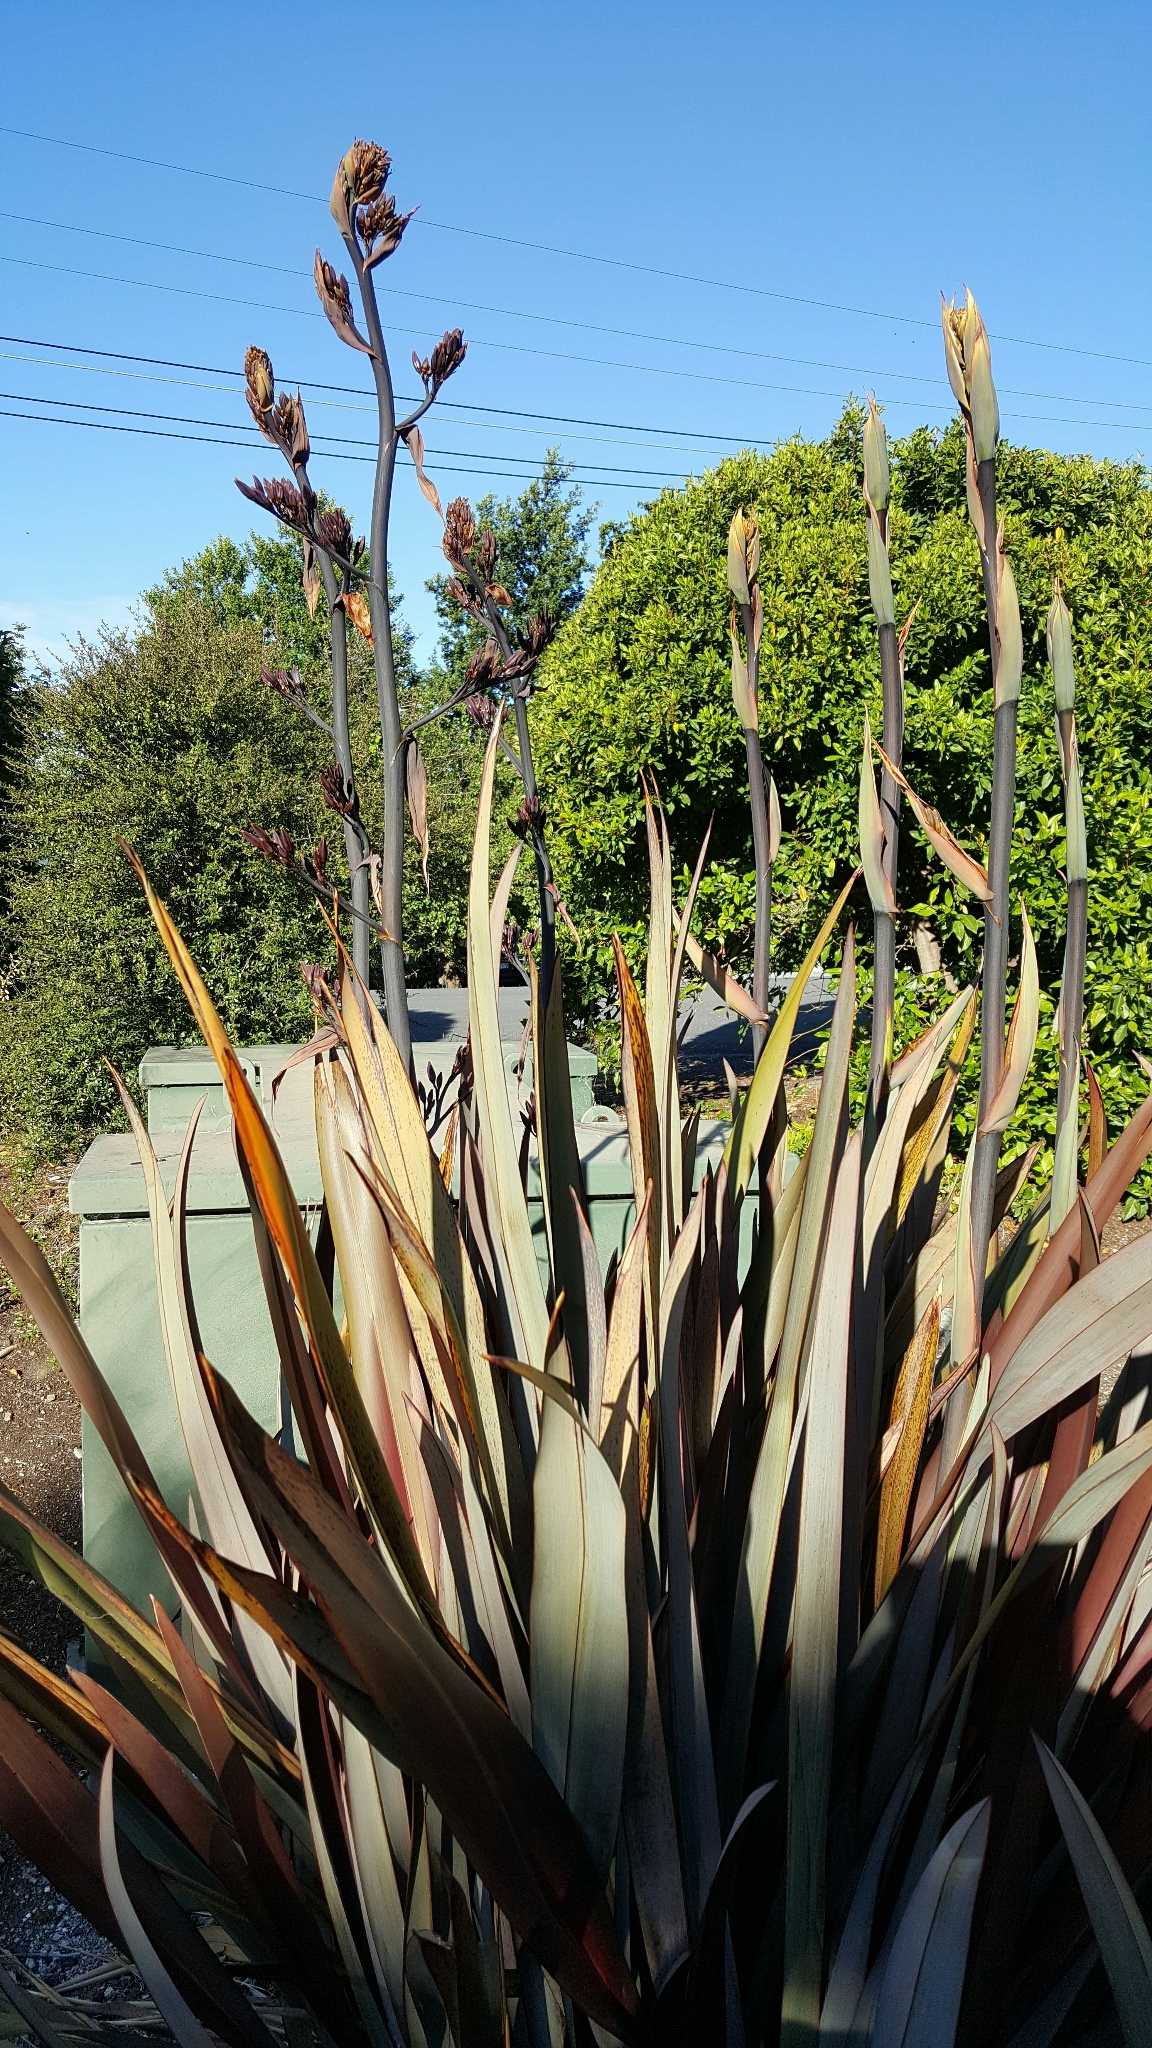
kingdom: Plantae
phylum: Tracheophyta
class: Liliopsida
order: Asparagales
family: Asphodelaceae
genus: Phormium
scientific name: Phormium tenax
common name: New zealand flax
